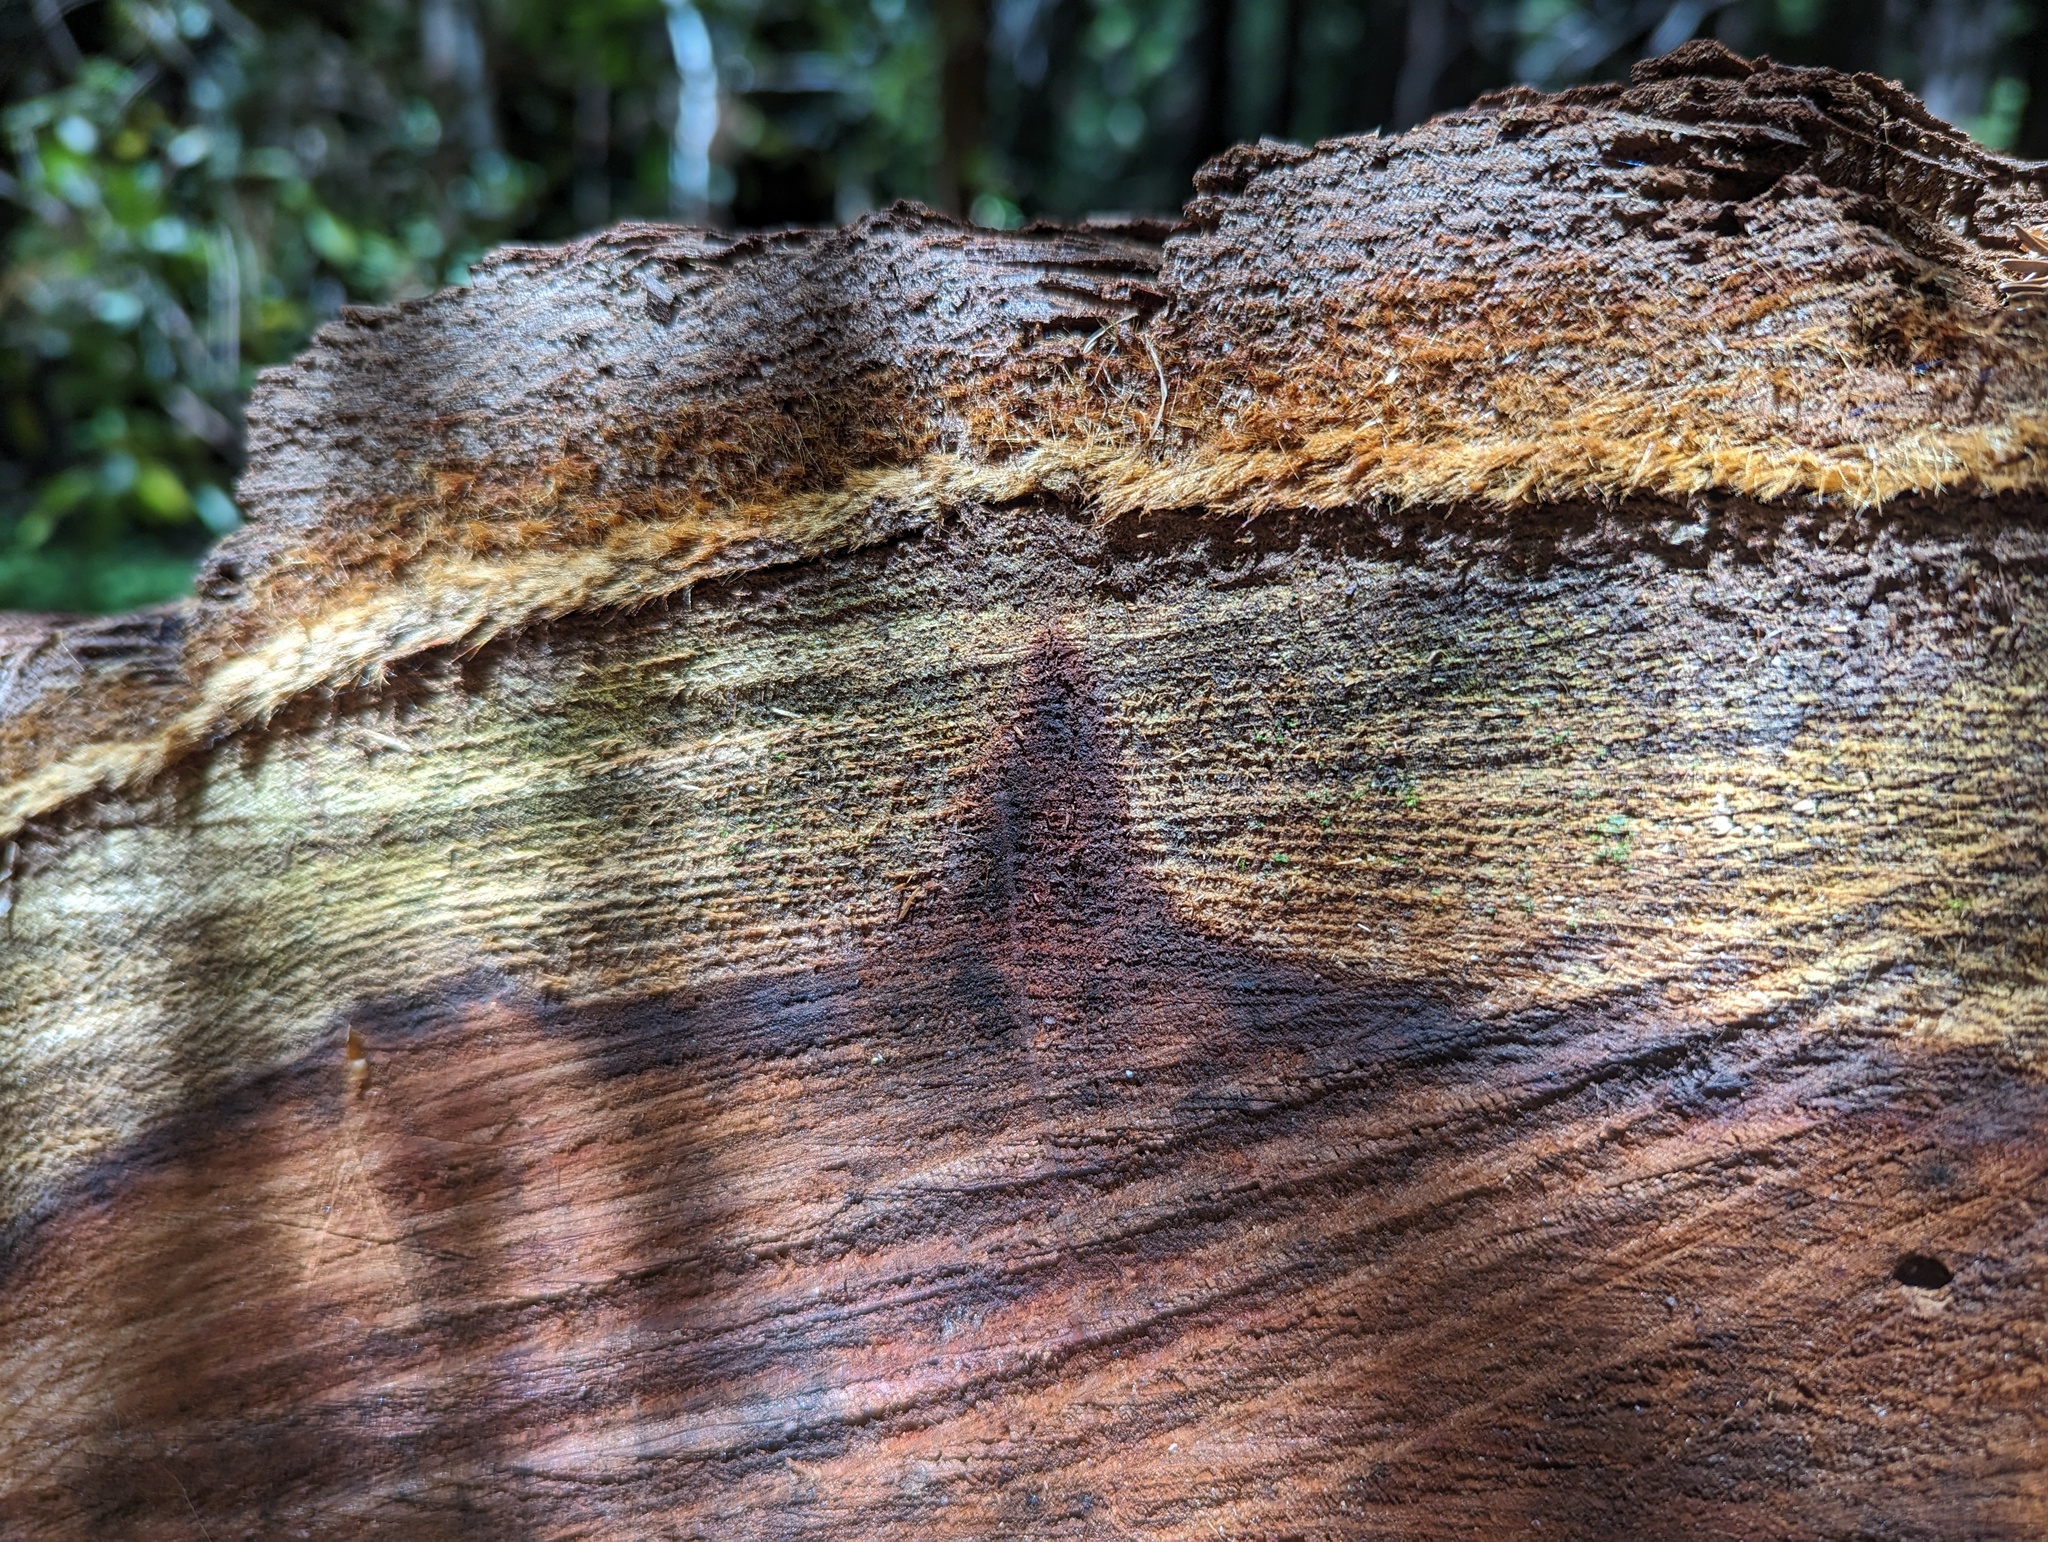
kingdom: Plantae
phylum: Tracheophyta
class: Pinopsida
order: Pinales
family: Cupressaceae
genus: Sequoia
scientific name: Sequoia sempervirens
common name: Coast redwood
